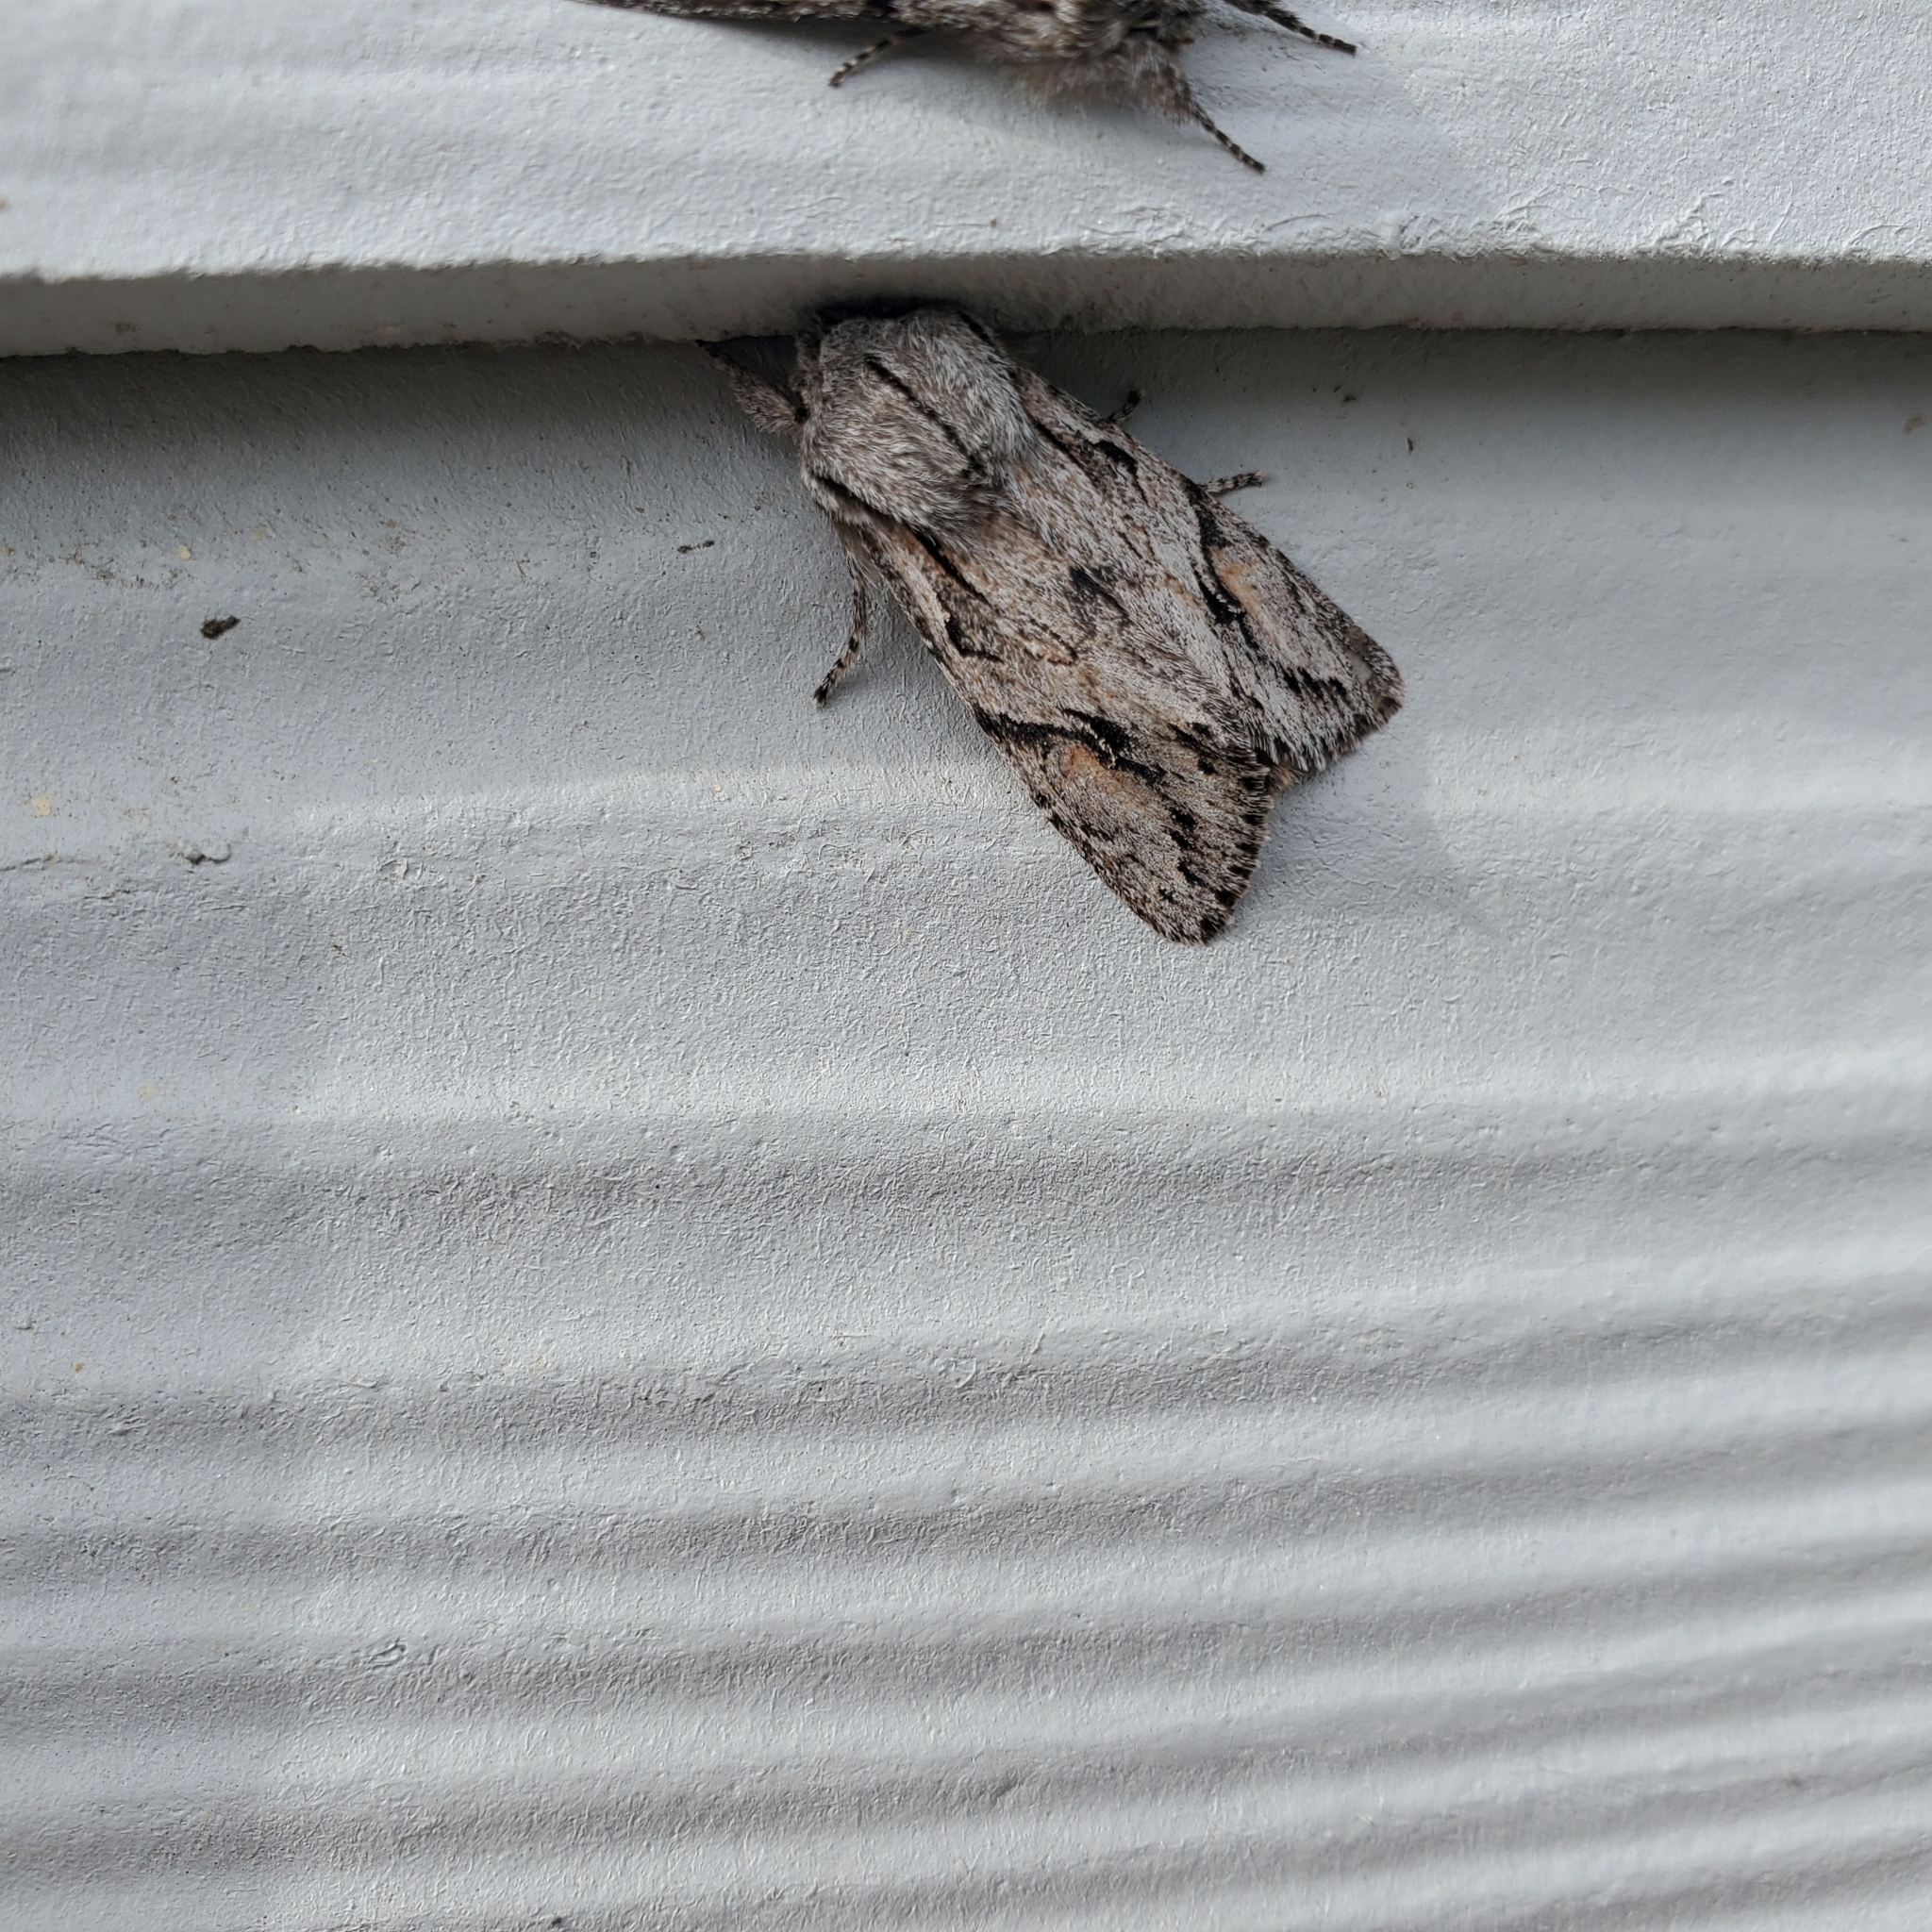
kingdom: Animalia
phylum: Arthropoda
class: Insecta
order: Lepidoptera
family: Noctuidae
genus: Egira
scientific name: Egira crucialis
